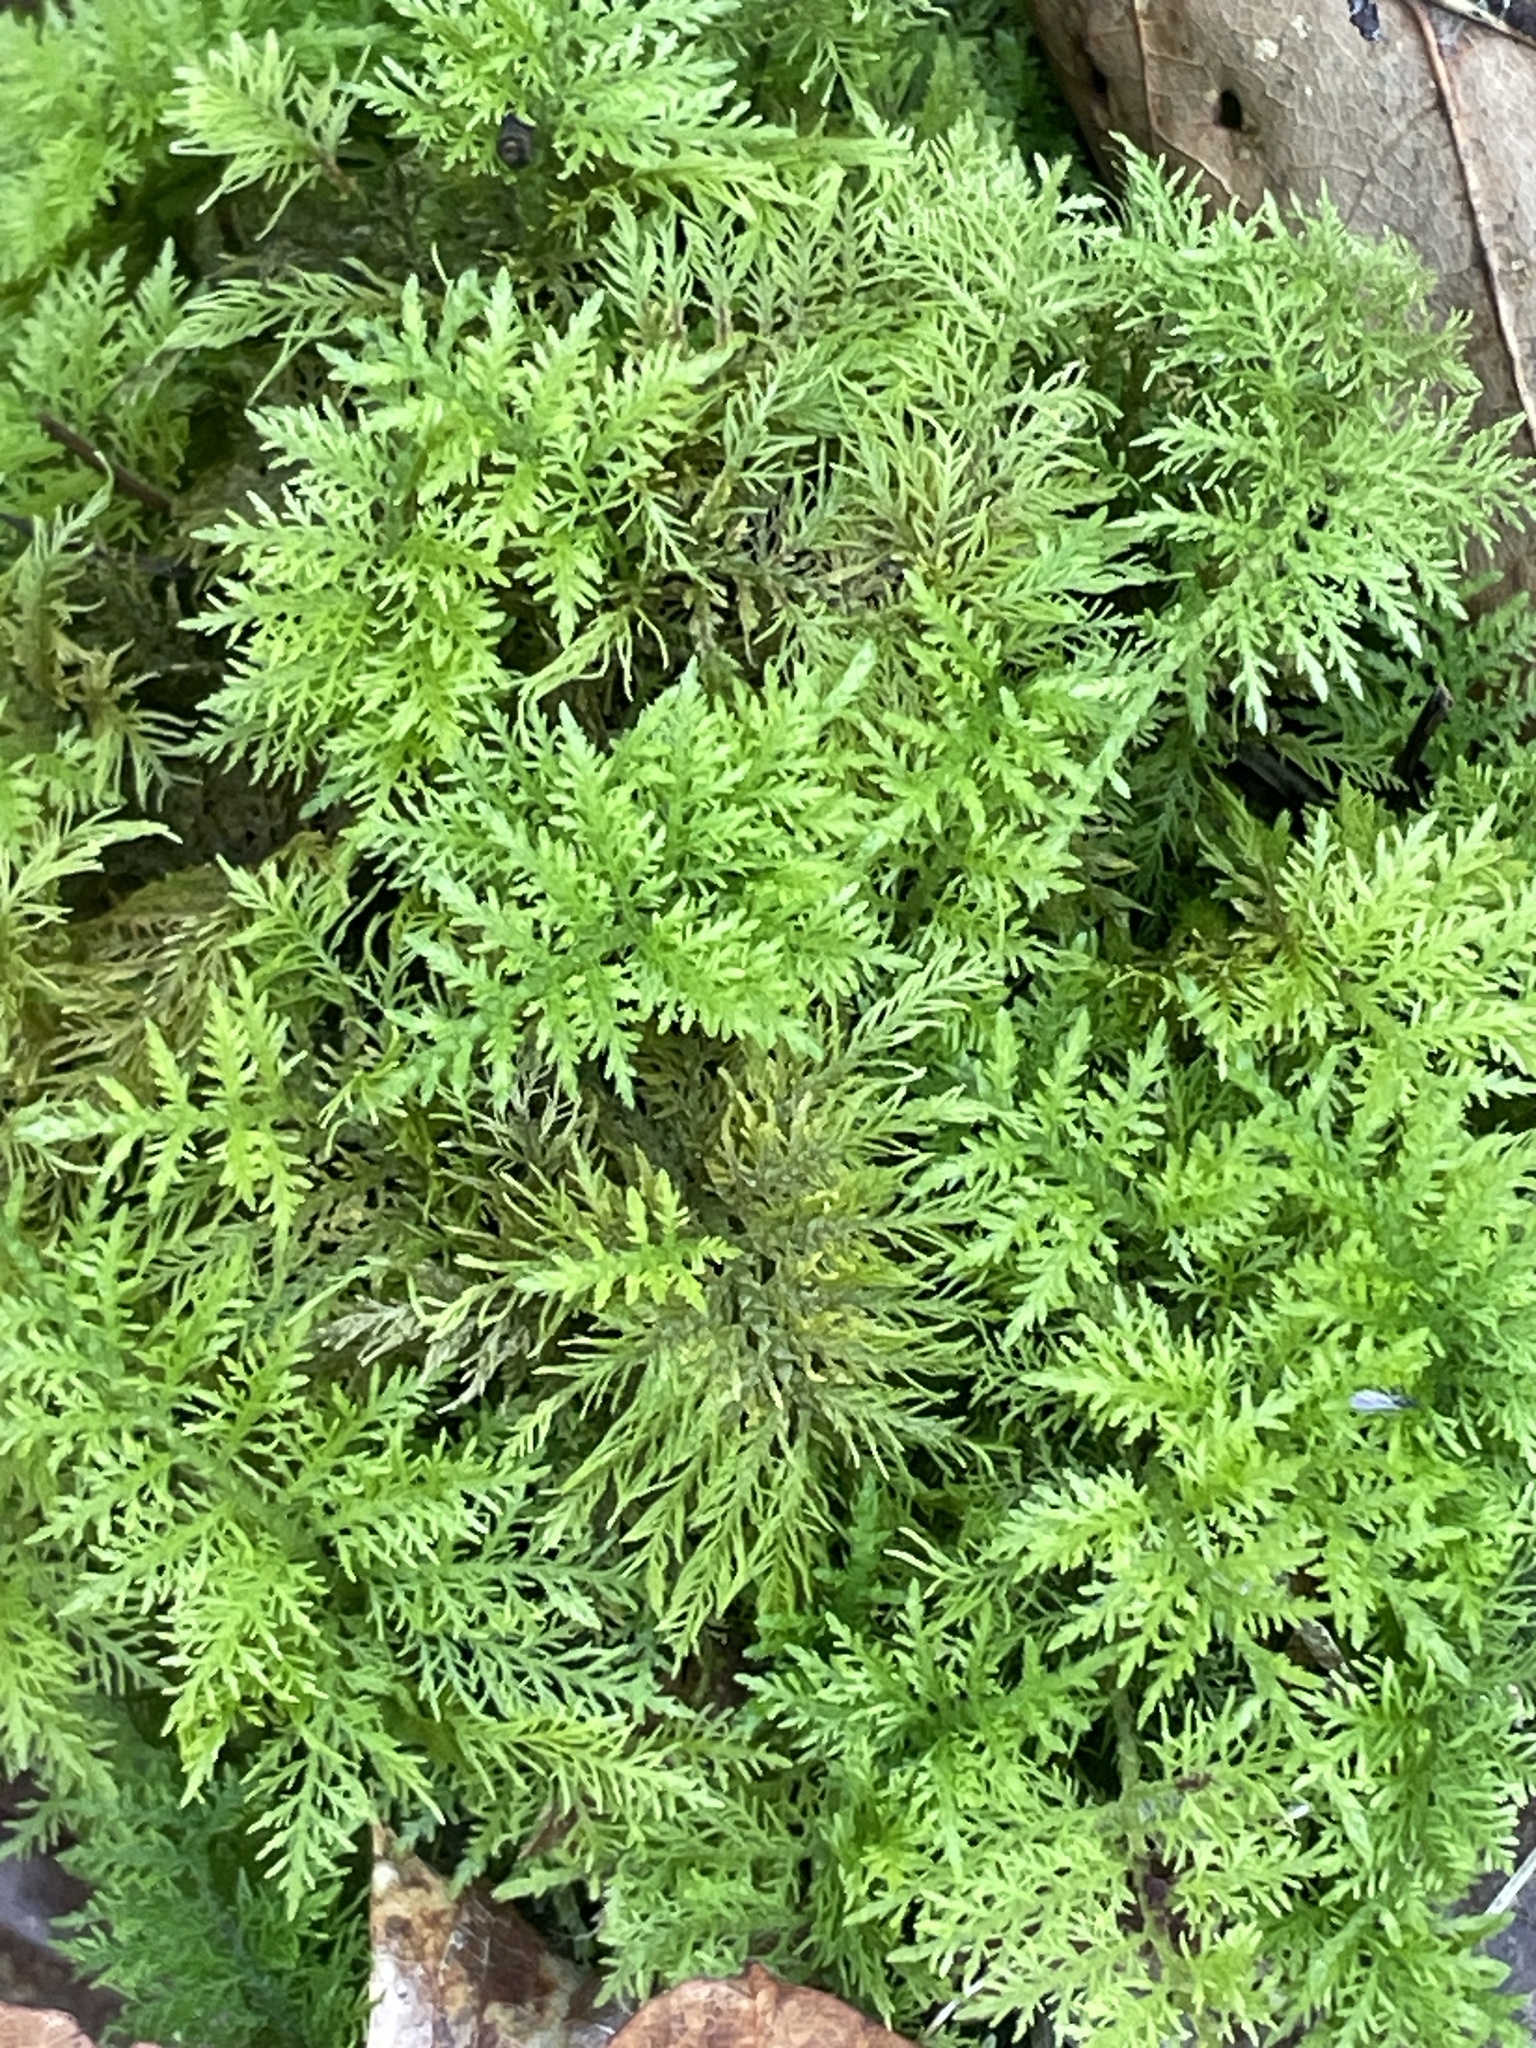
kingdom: Plantae
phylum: Bryophyta
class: Bryopsida
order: Hypnales
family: Thuidiaceae
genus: Thuidium
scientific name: Thuidium tamariscinum
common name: Common tamarisk-moss
